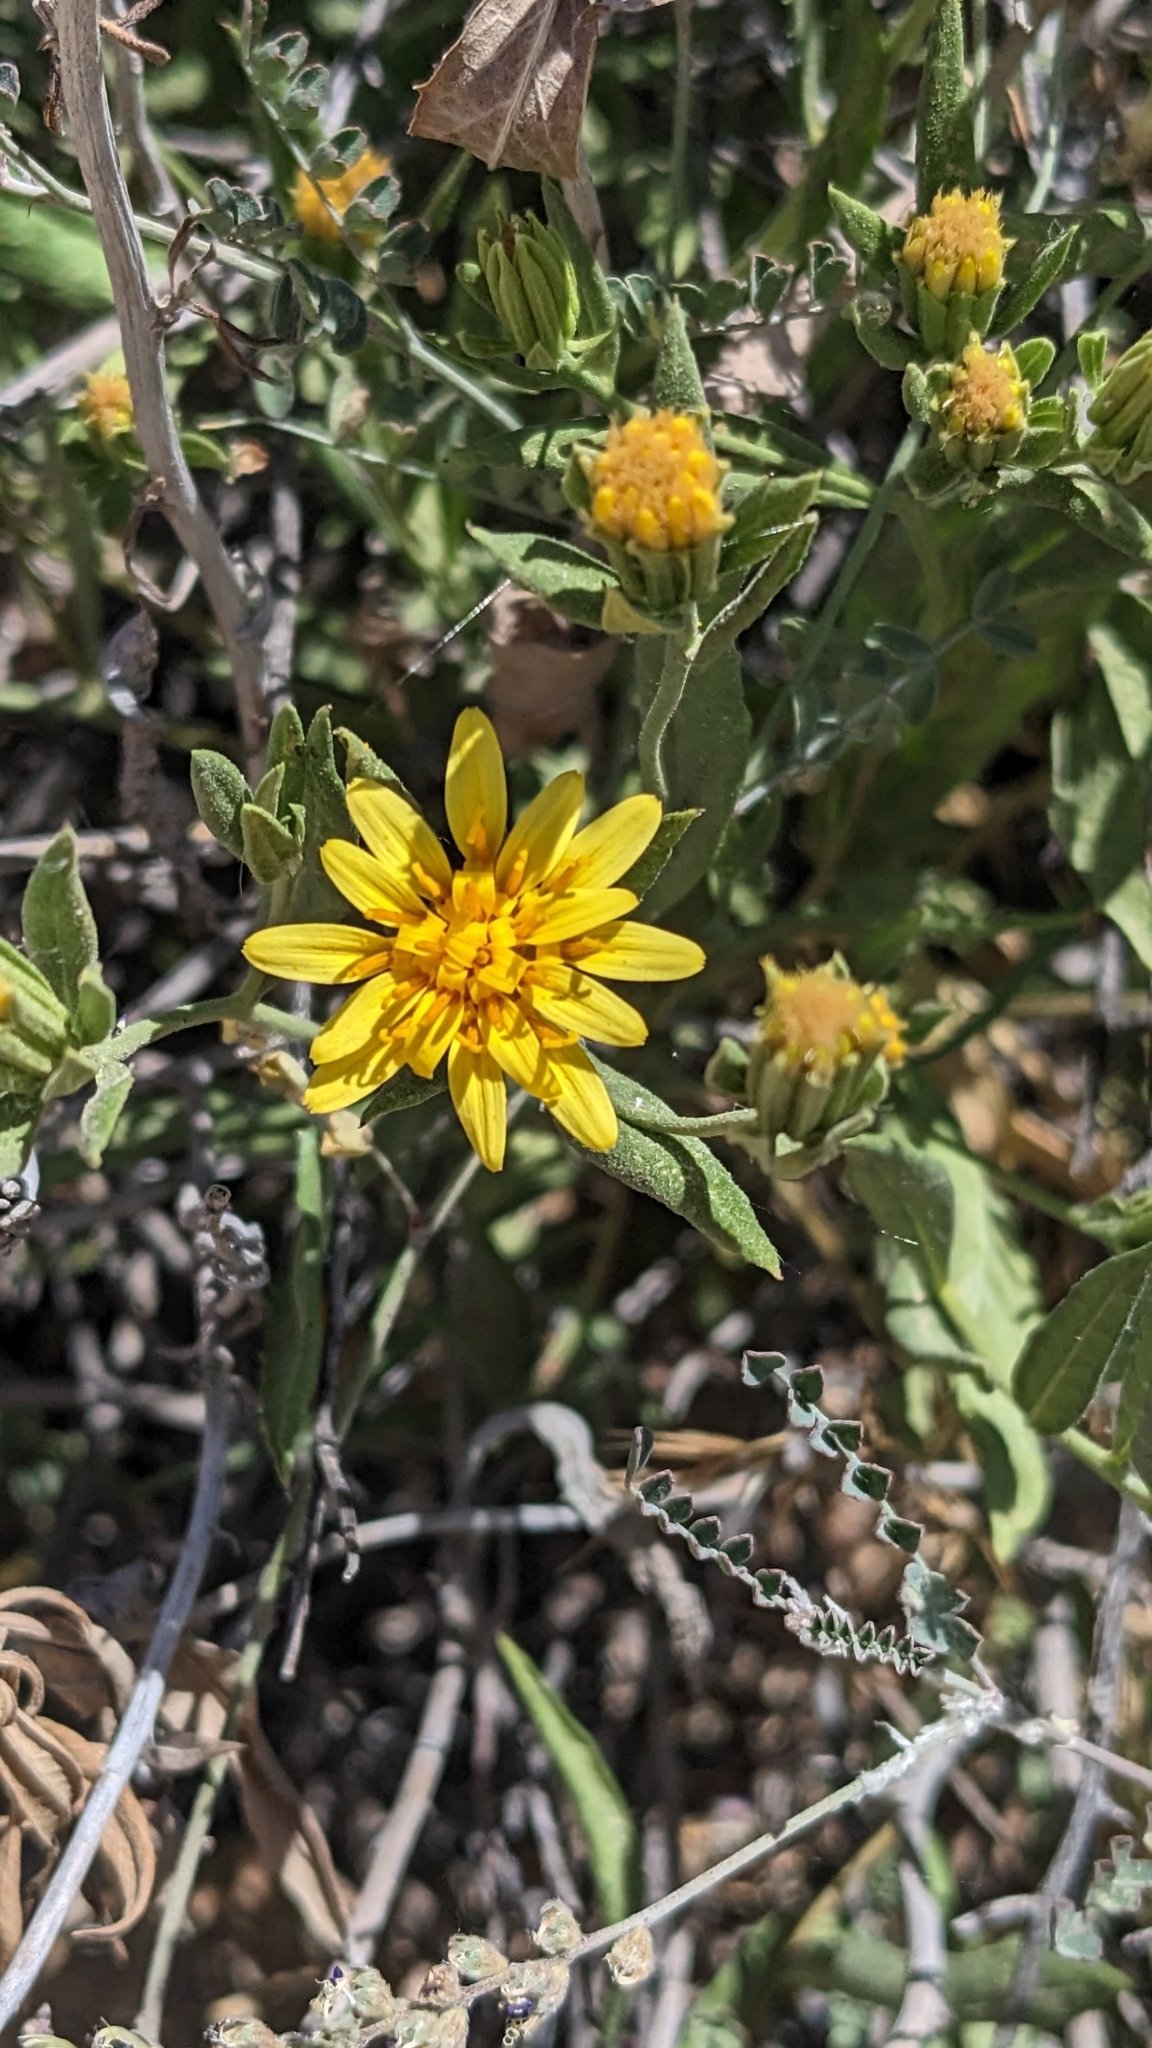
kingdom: Plantae
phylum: Tracheophyta
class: Magnoliopsida
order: Asterales
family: Asteraceae
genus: Trixis
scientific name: Trixis californica
